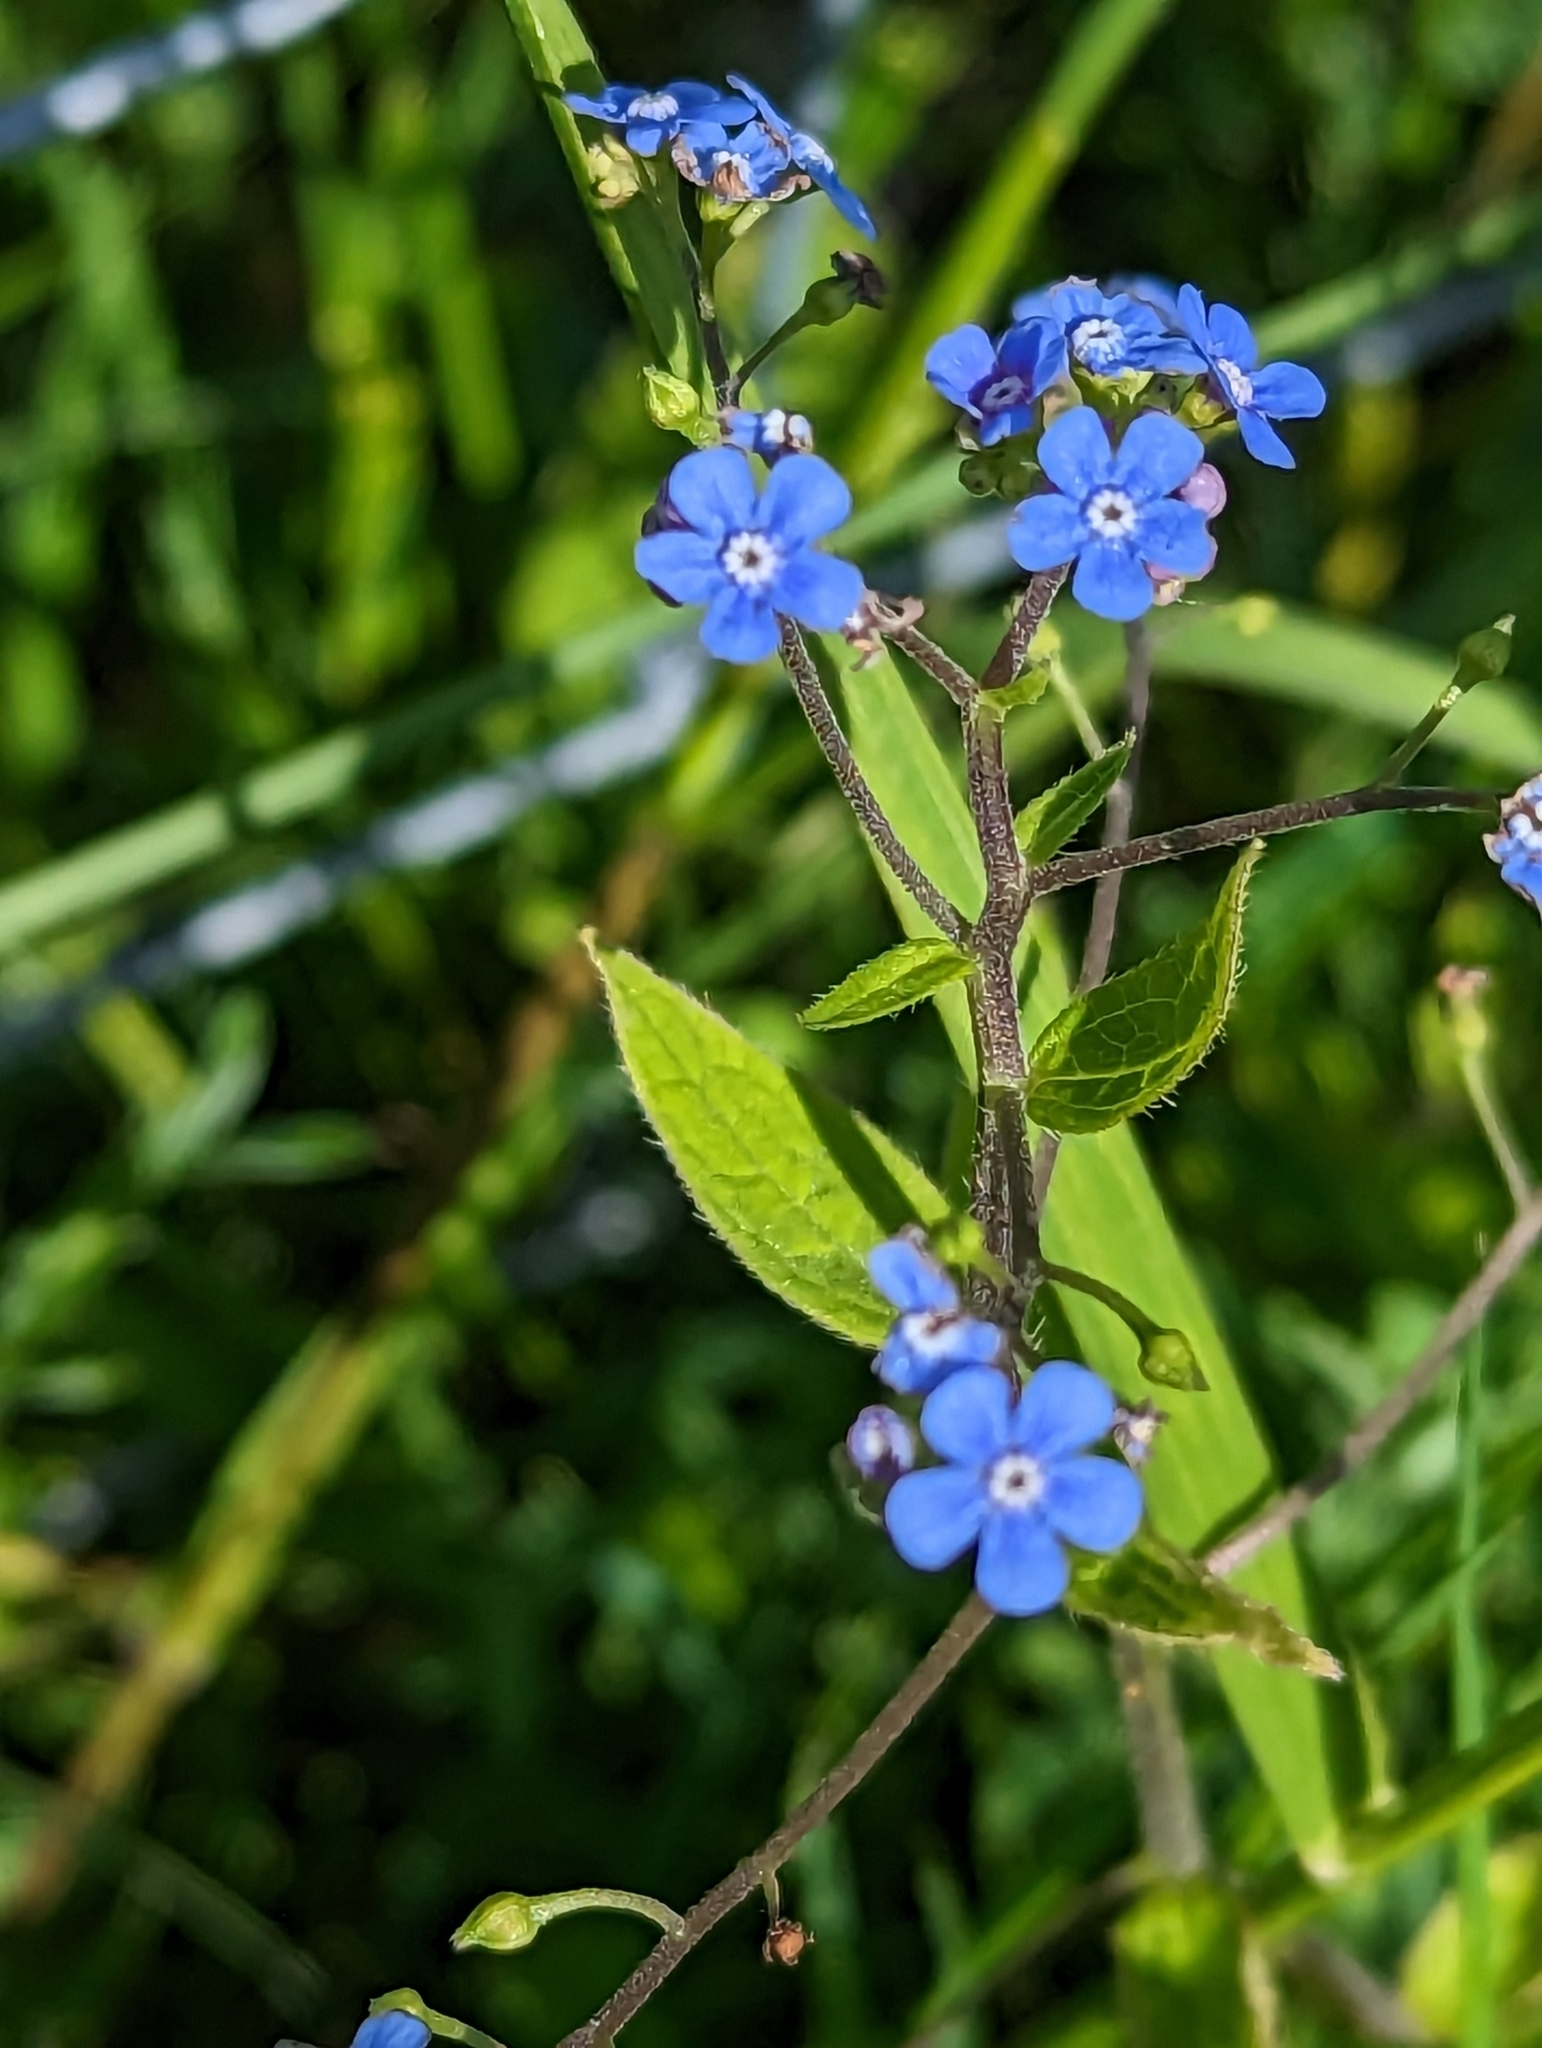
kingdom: Plantae
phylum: Tracheophyta
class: Magnoliopsida
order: Boraginales
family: Boraginaceae
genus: Brunnera
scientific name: Brunnera macrophylla
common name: Great forget-me-not
